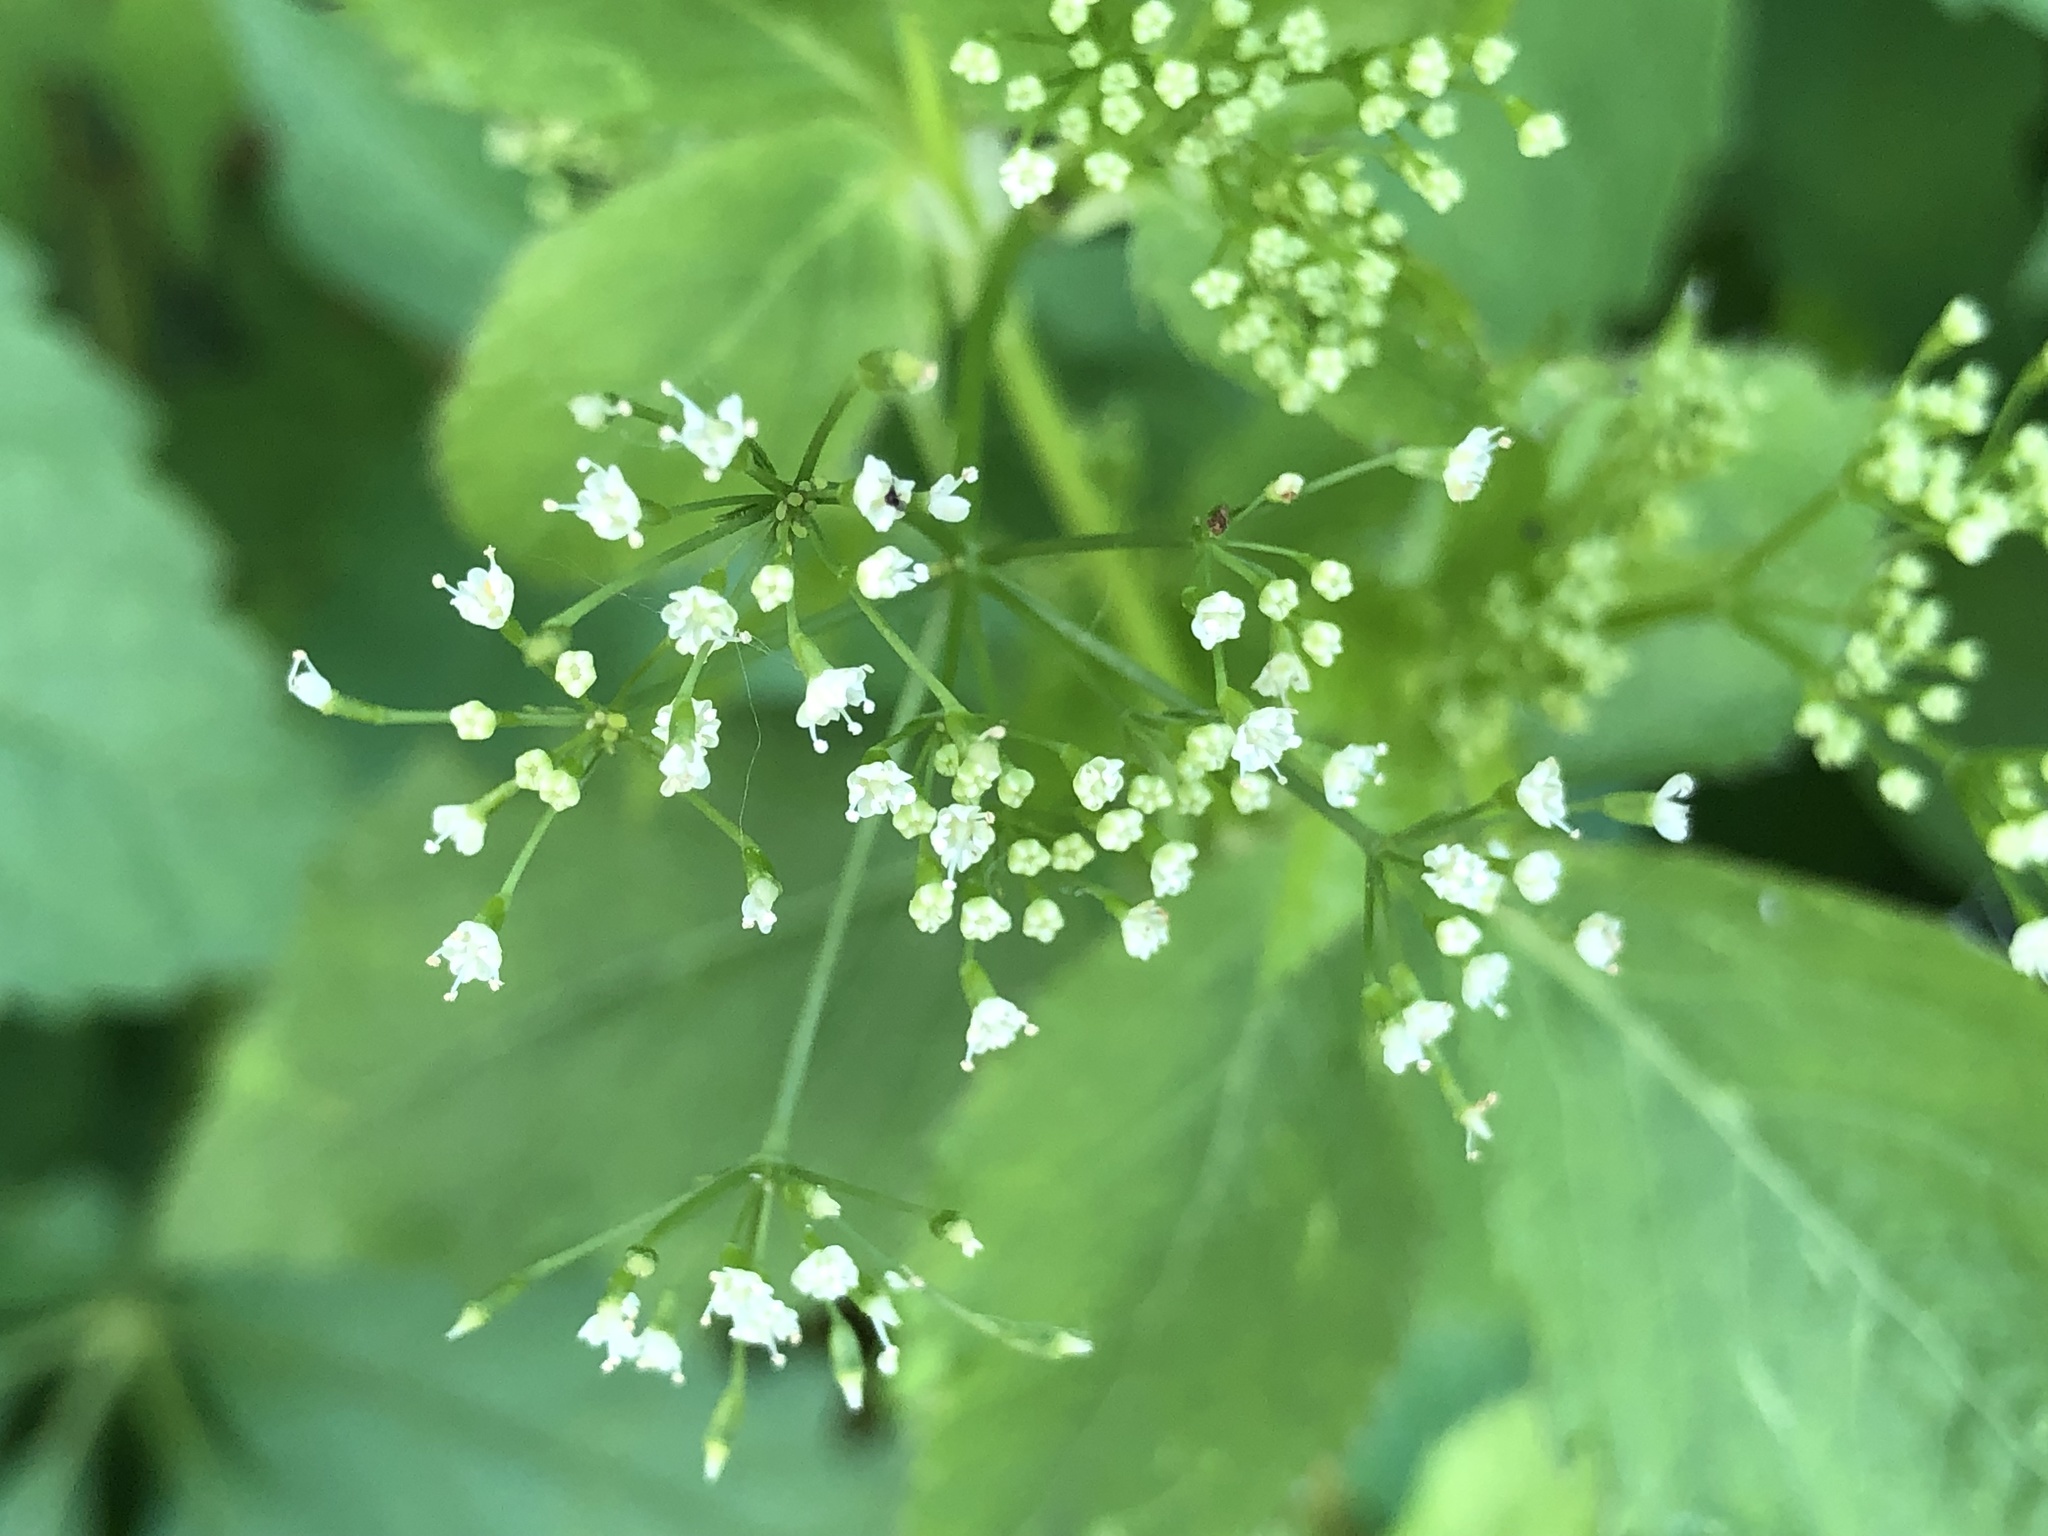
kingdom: Plantae
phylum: Tracheophyta
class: Magnoliopsida
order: Apiales
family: Apiaceae
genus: Cryptotaenia
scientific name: Cryptotaenia canadensis
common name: Honewort
